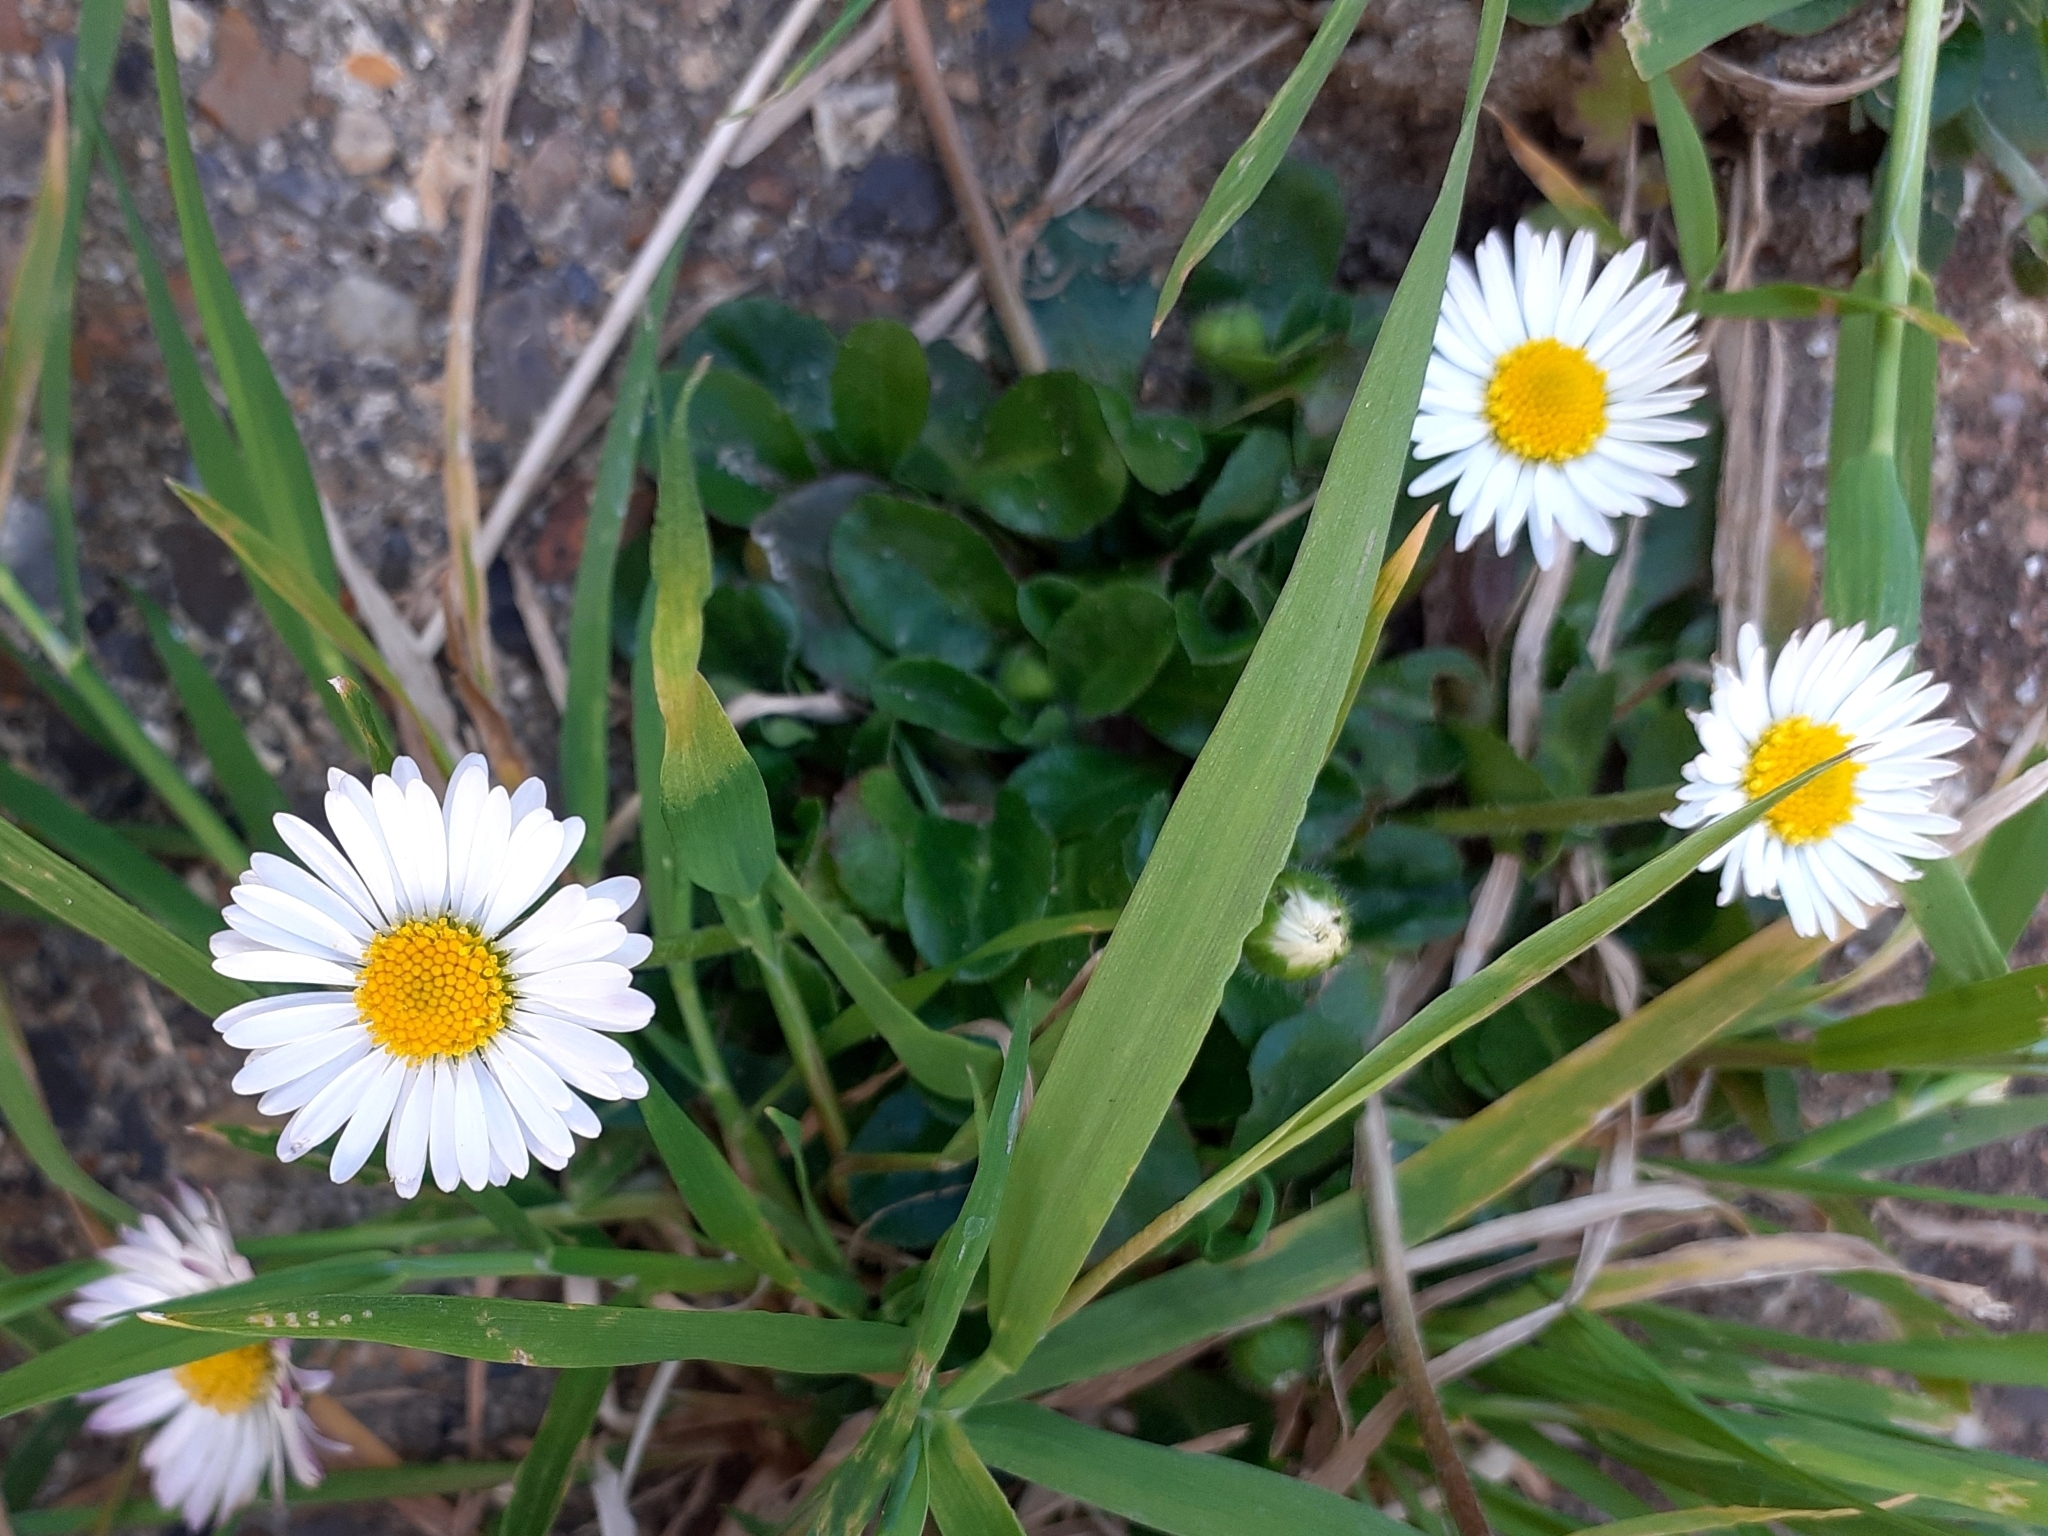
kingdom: Plantae
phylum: Tracheophyta
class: Magnoliopsida
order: Asterales
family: Asteraceae
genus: Bellis
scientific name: Bellis perennis
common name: Lawndaisy
